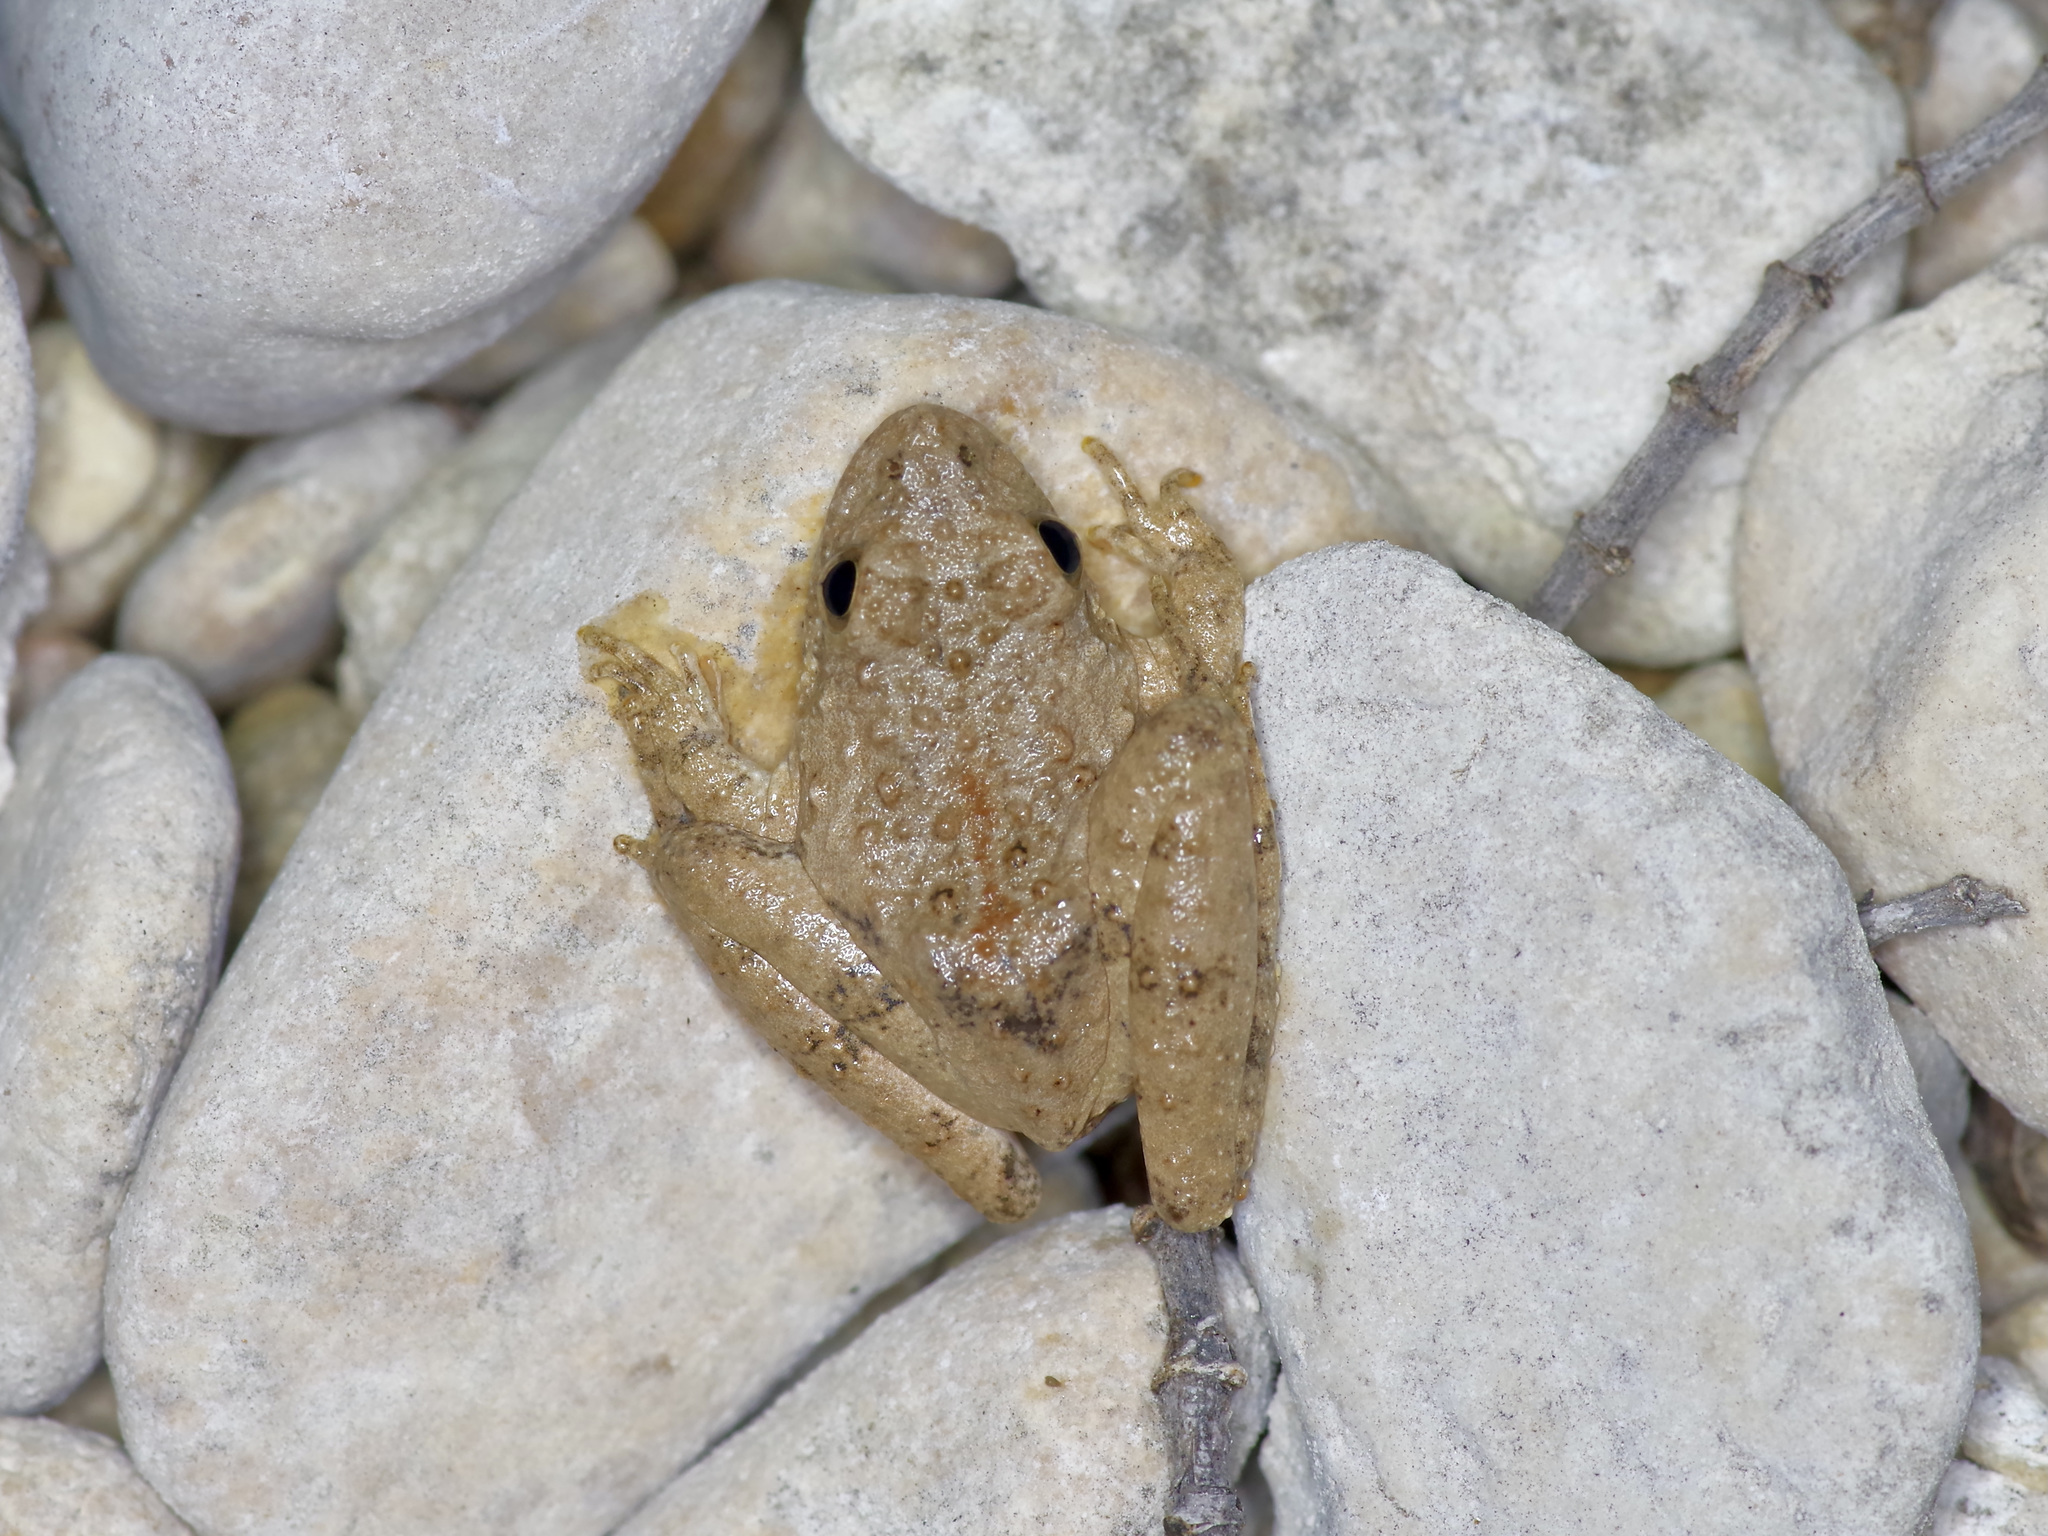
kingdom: Animalia
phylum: Chordata
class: Amphibia
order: Anura
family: Hylidae
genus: Acris
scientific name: Acris blanchardi
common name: Blanchard's cricket frog
